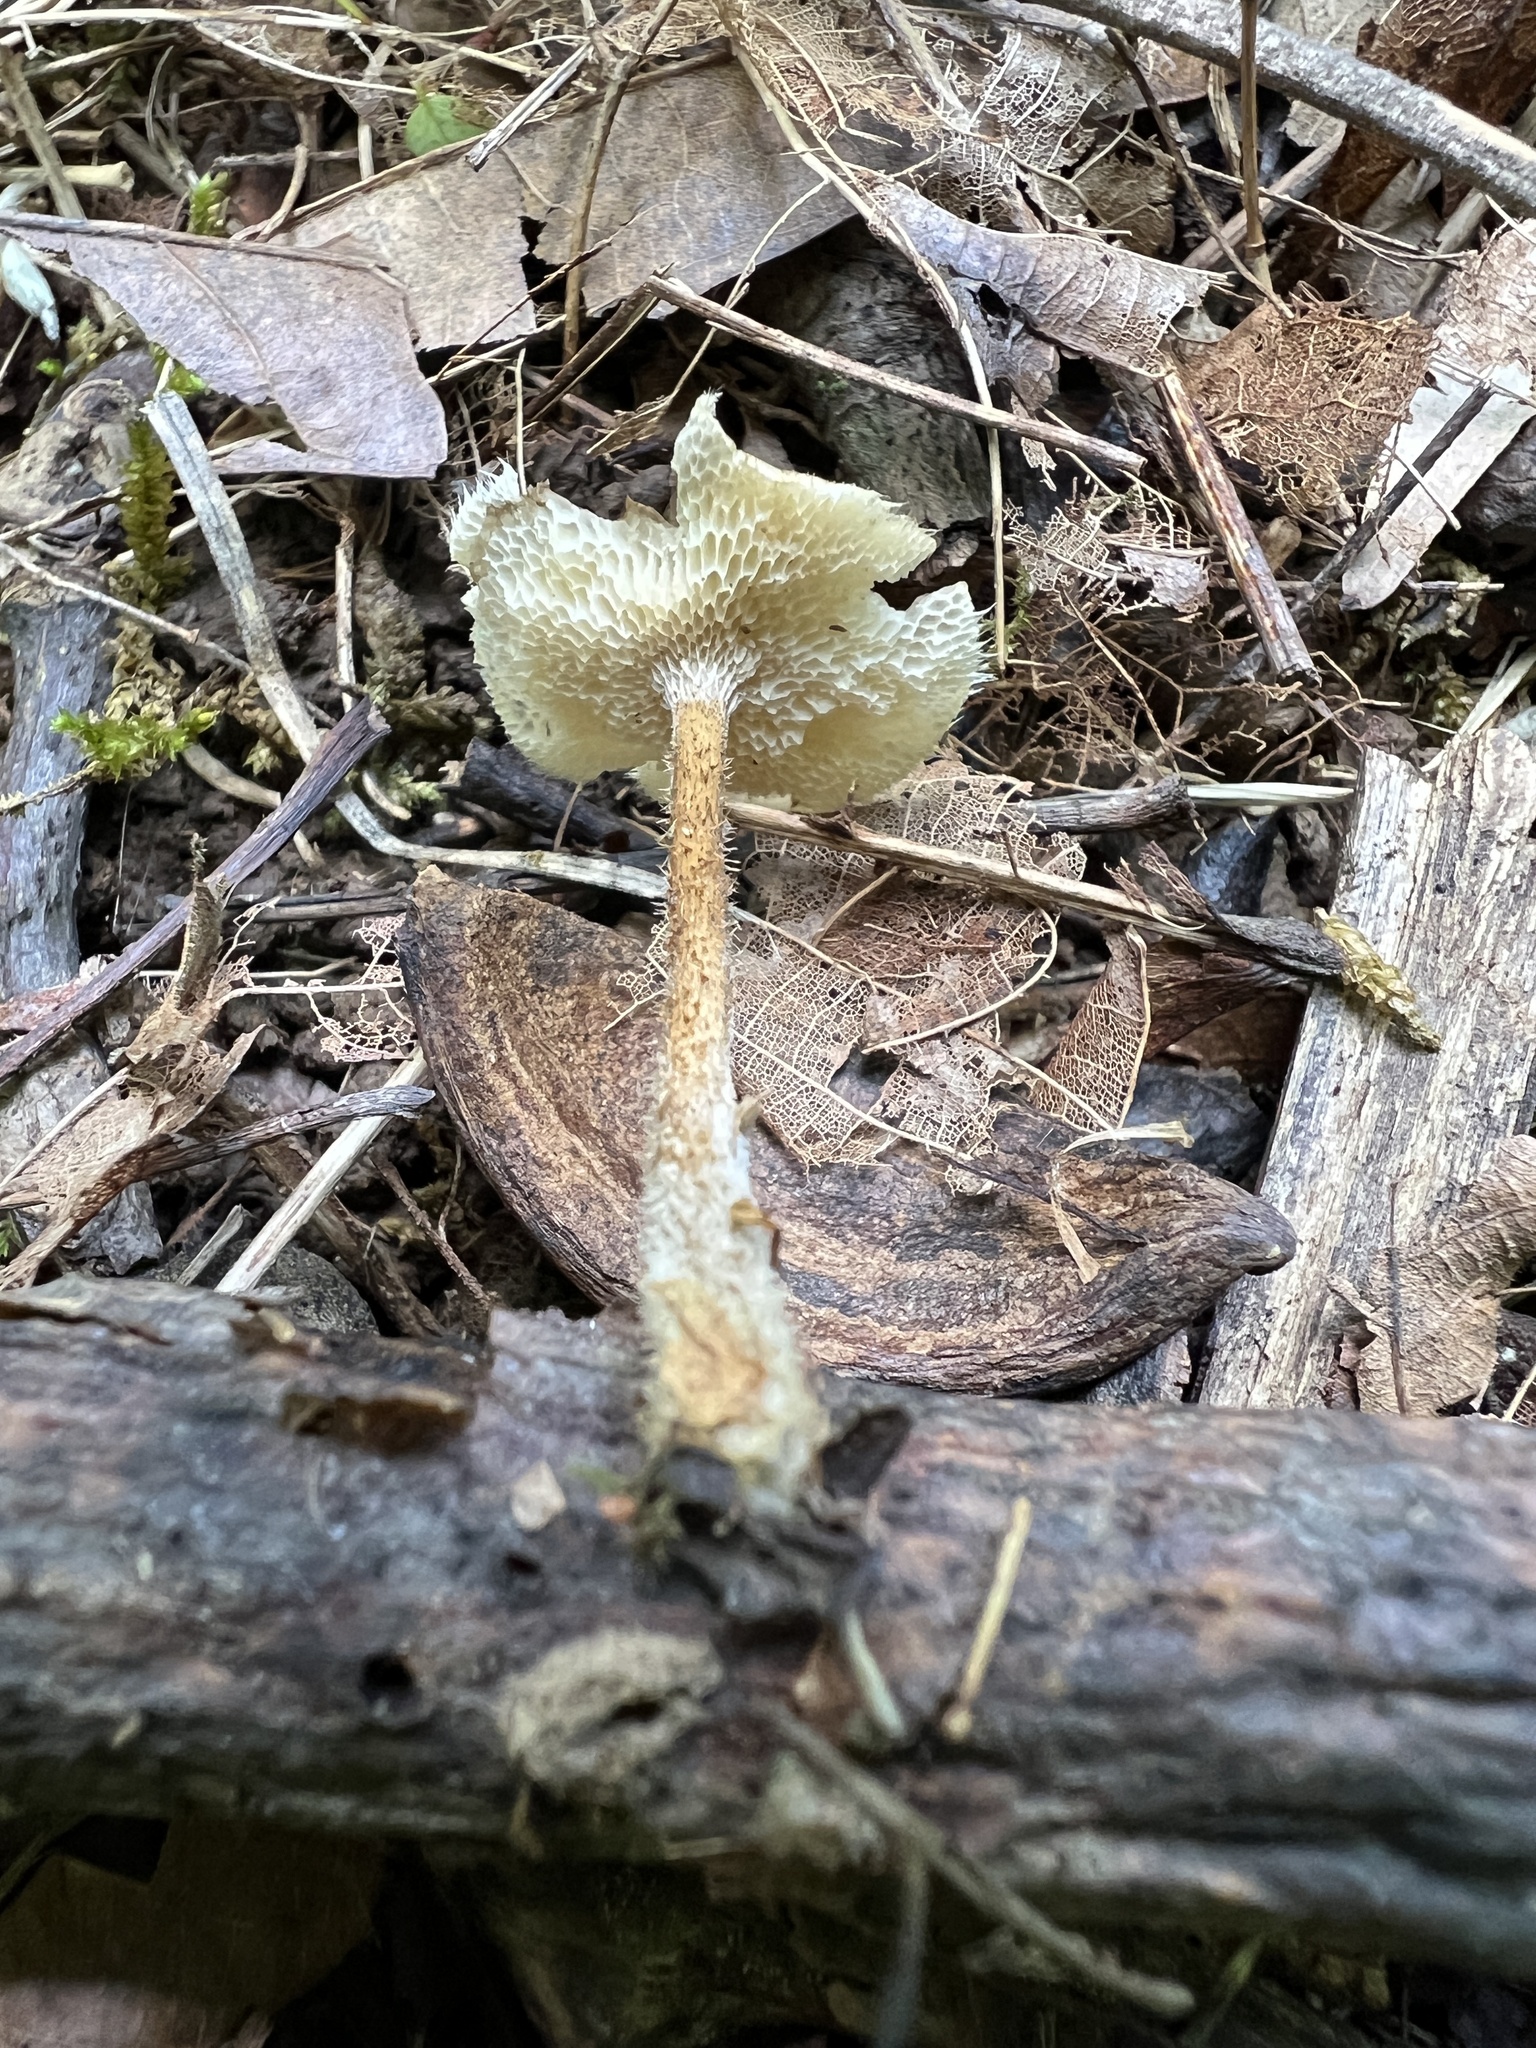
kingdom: Fungi
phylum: Basidiomycota
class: Agaricomycetes
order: Polyporales
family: Polyporaceae
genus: Lentinus
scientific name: Lentinus arcularius
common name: Spring polypore
